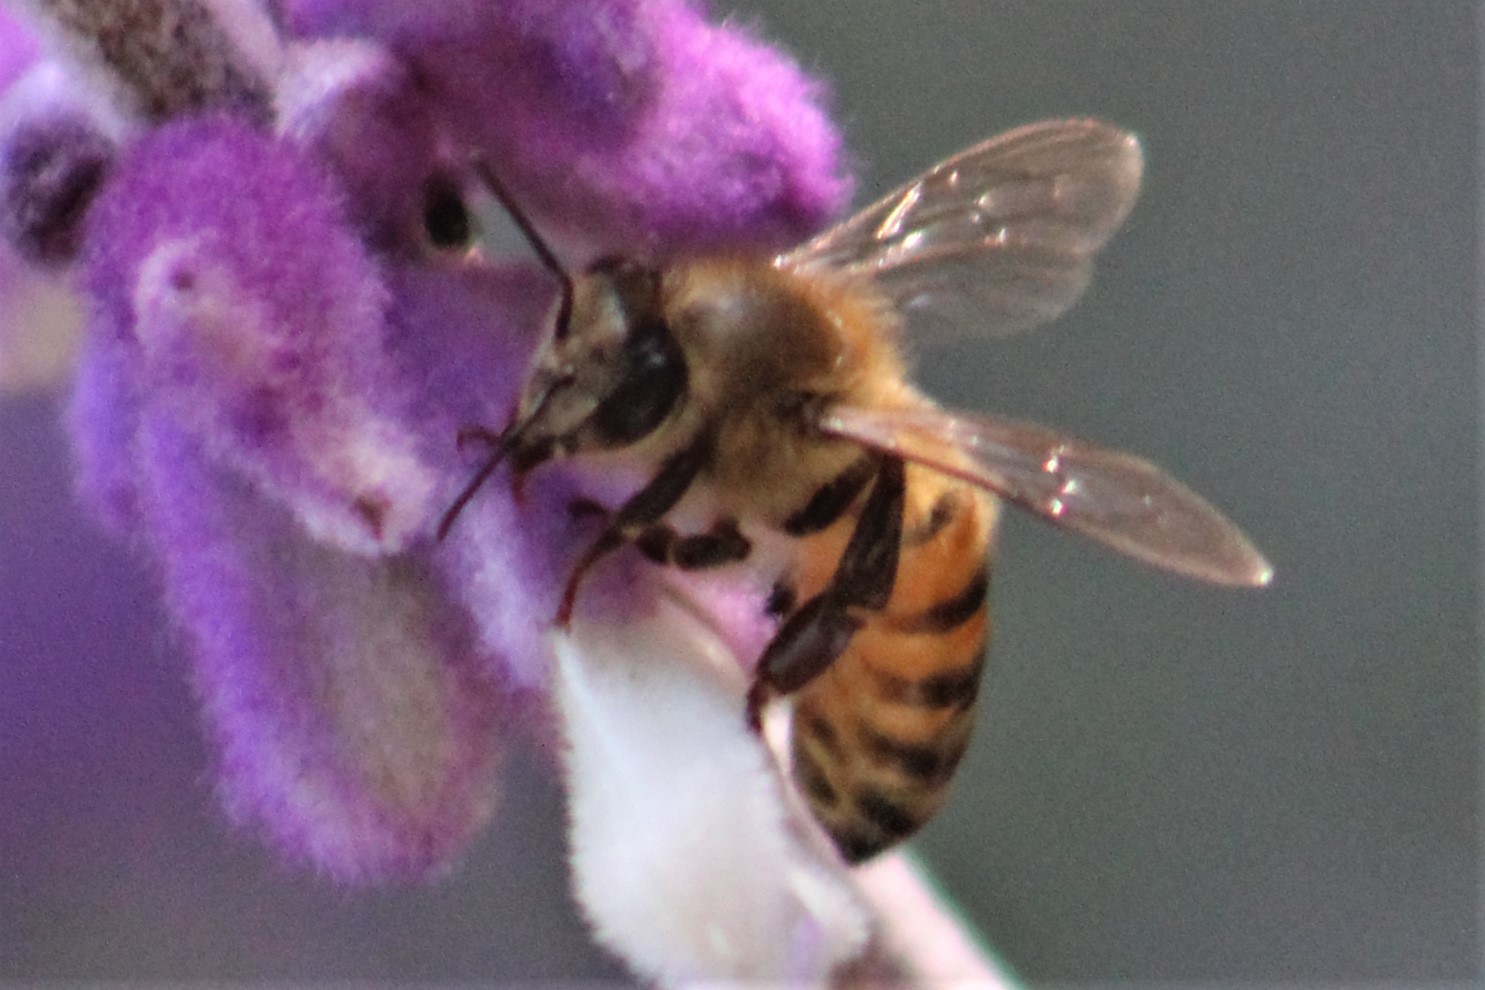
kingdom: Animalia
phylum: Arthropoda
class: Insecta
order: Hymenoptera
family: Apidae
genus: Apis
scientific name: Apis mellifera
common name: Honey bee
